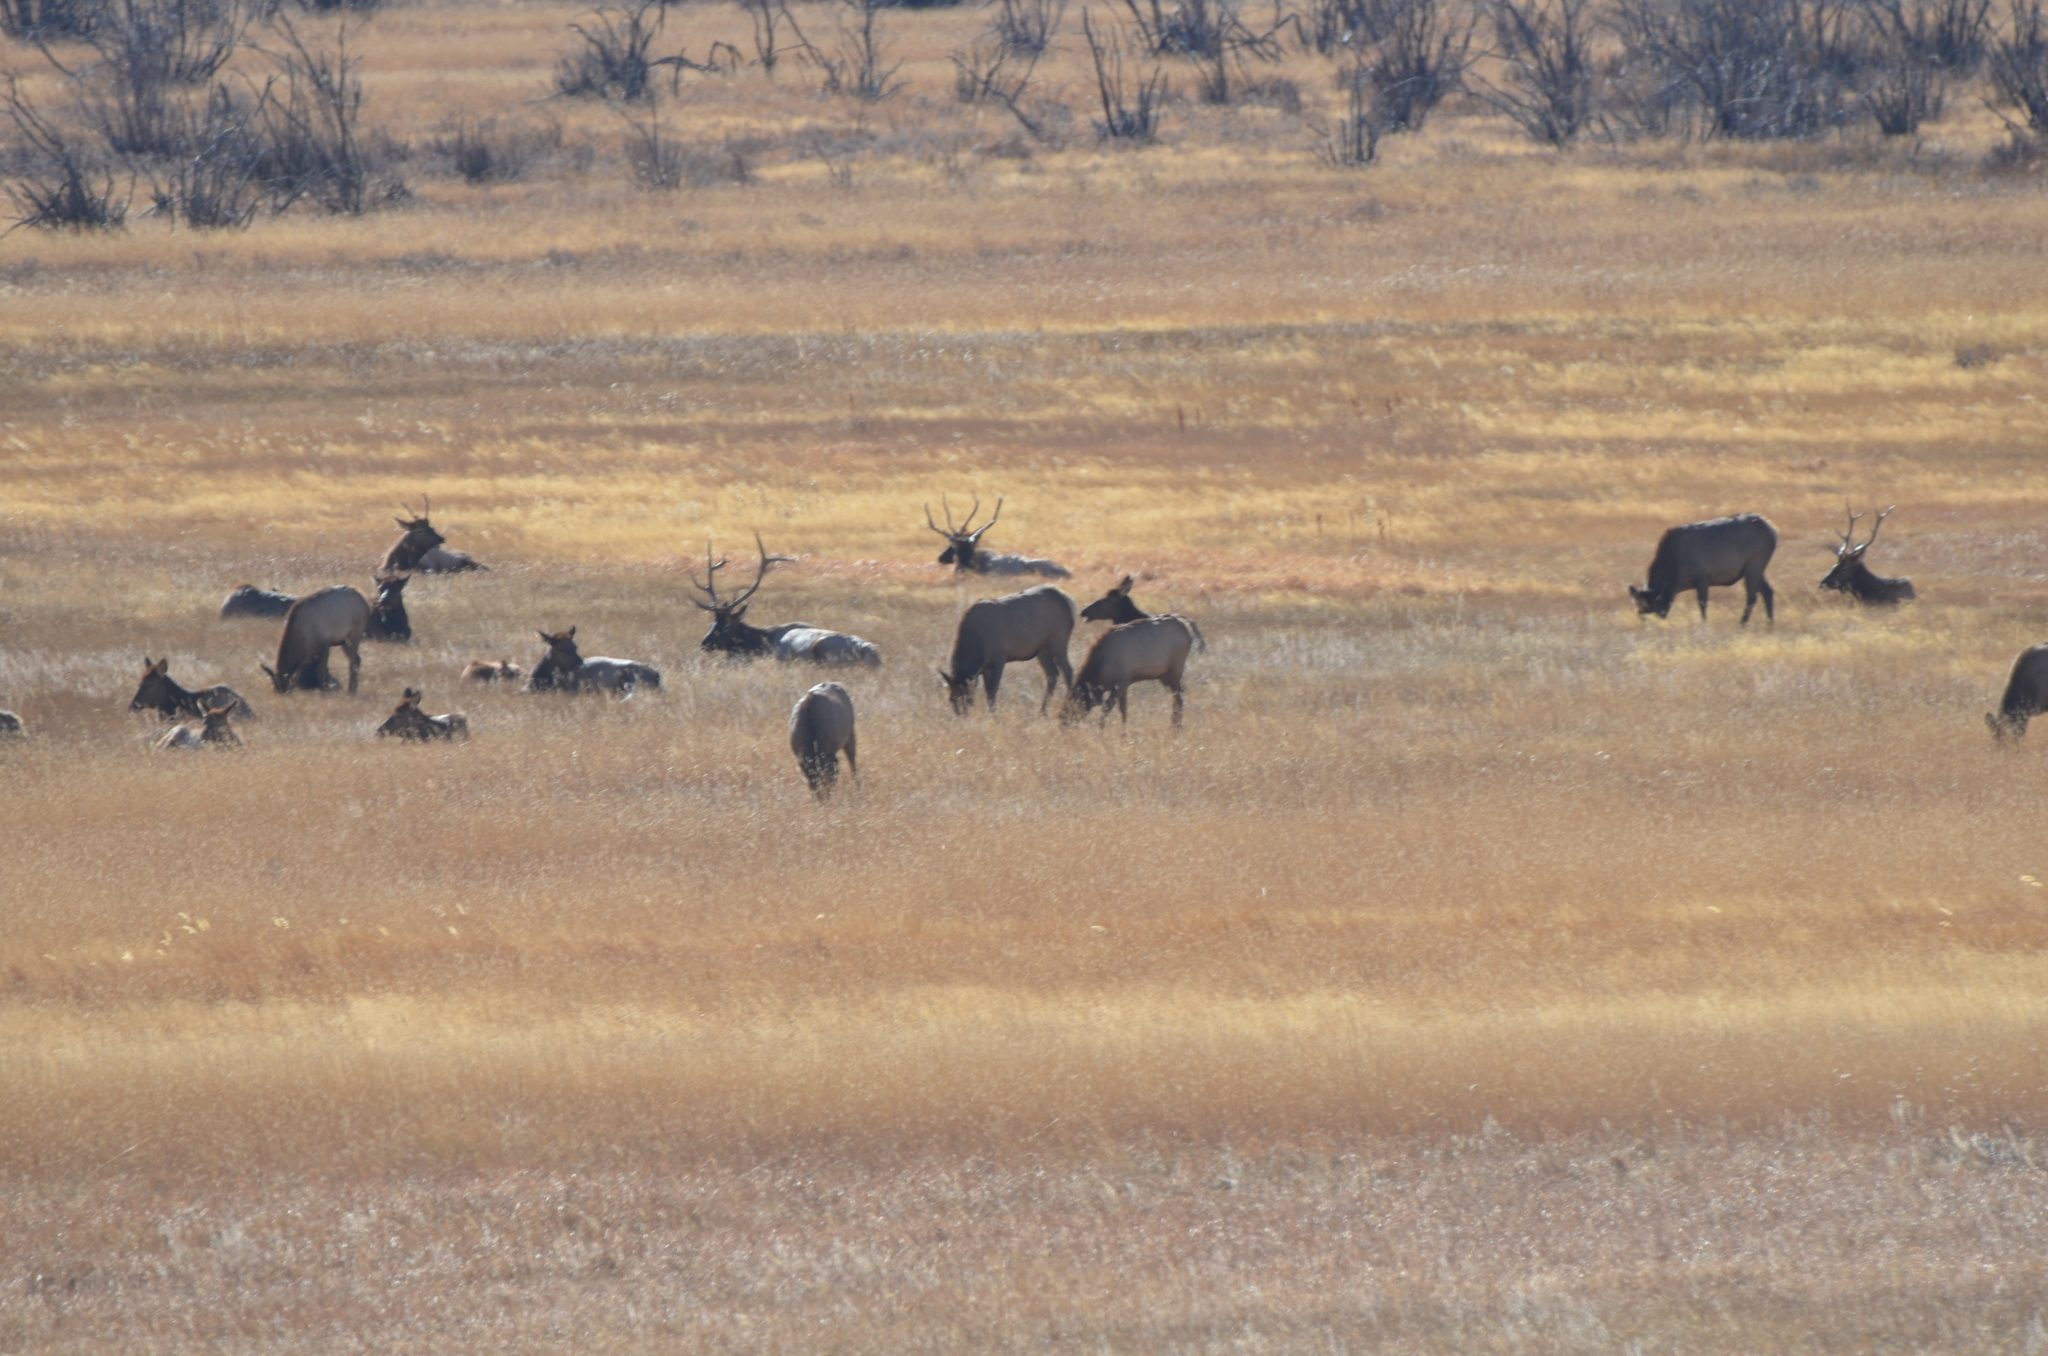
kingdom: Animalia
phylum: Chordata
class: Mammalia
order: Artiodactyla
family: Cervidae
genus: Cervus
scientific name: Cervus elaphus
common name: Red deer
